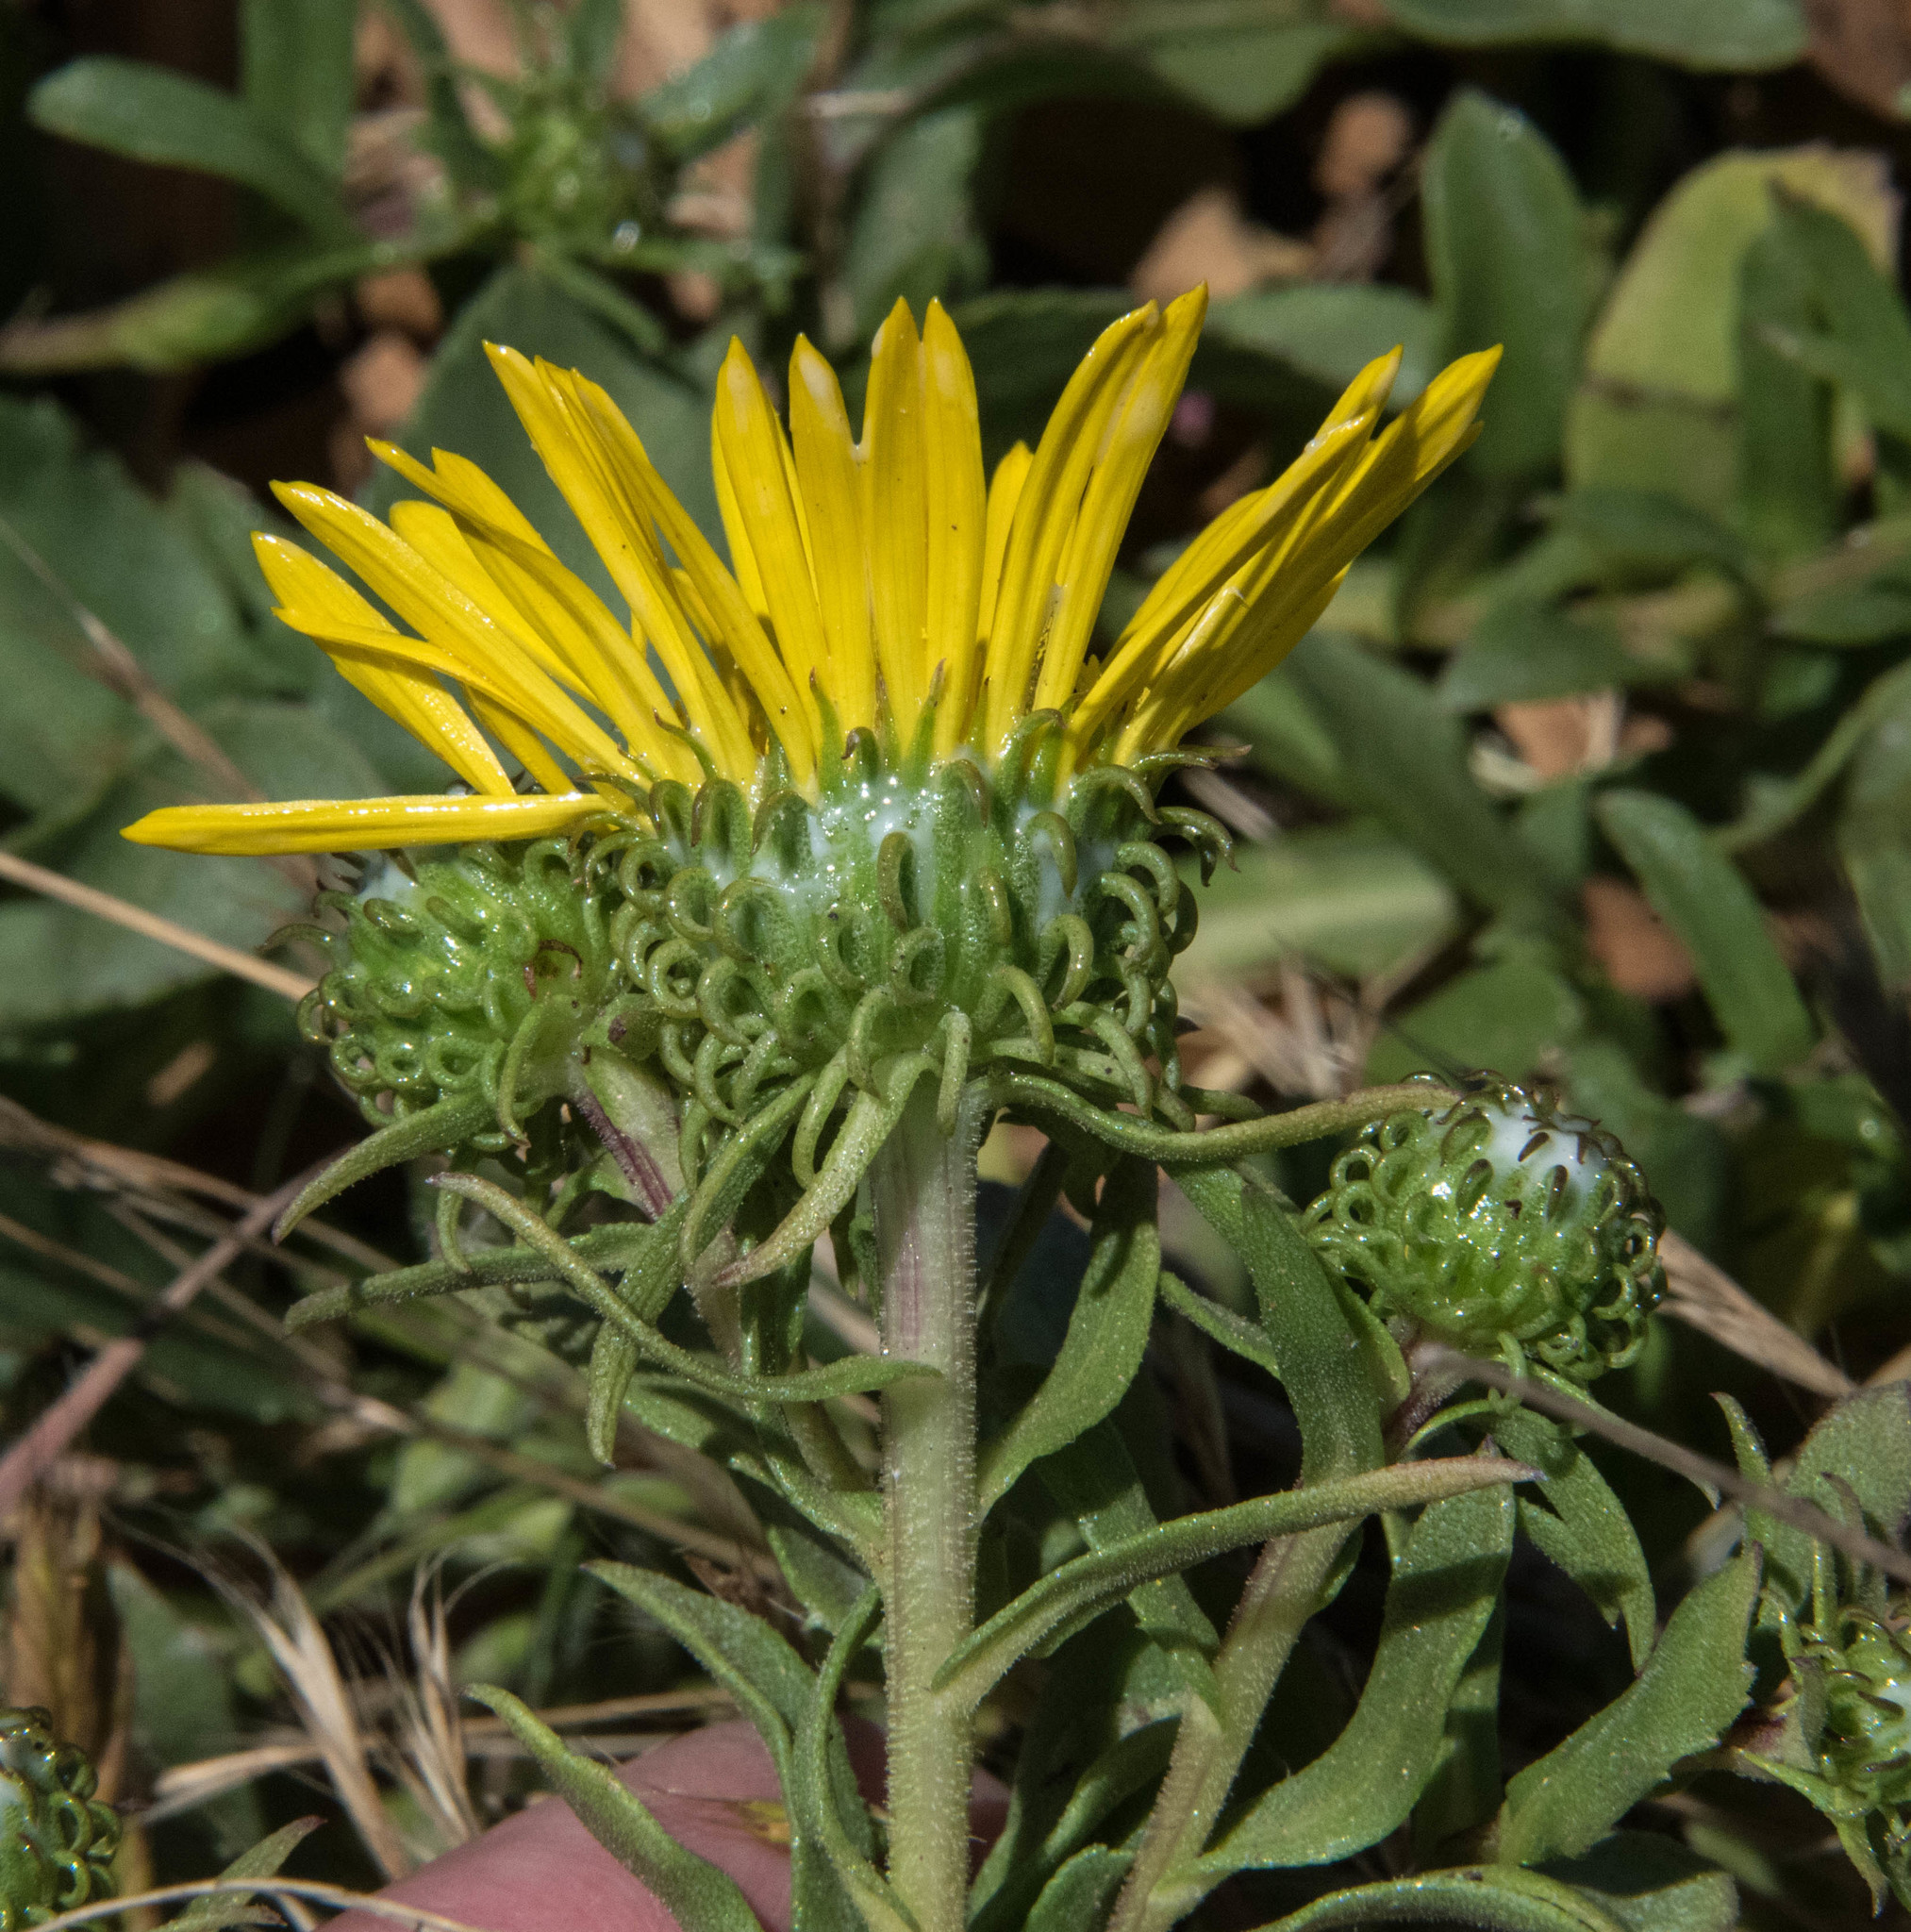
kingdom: Plantae
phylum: Tracheophyta
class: Magnoliopsida
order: Asterales
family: Asteraceae
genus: Grindelia
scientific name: Grindelia hirsutula
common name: Hairy gumweed
